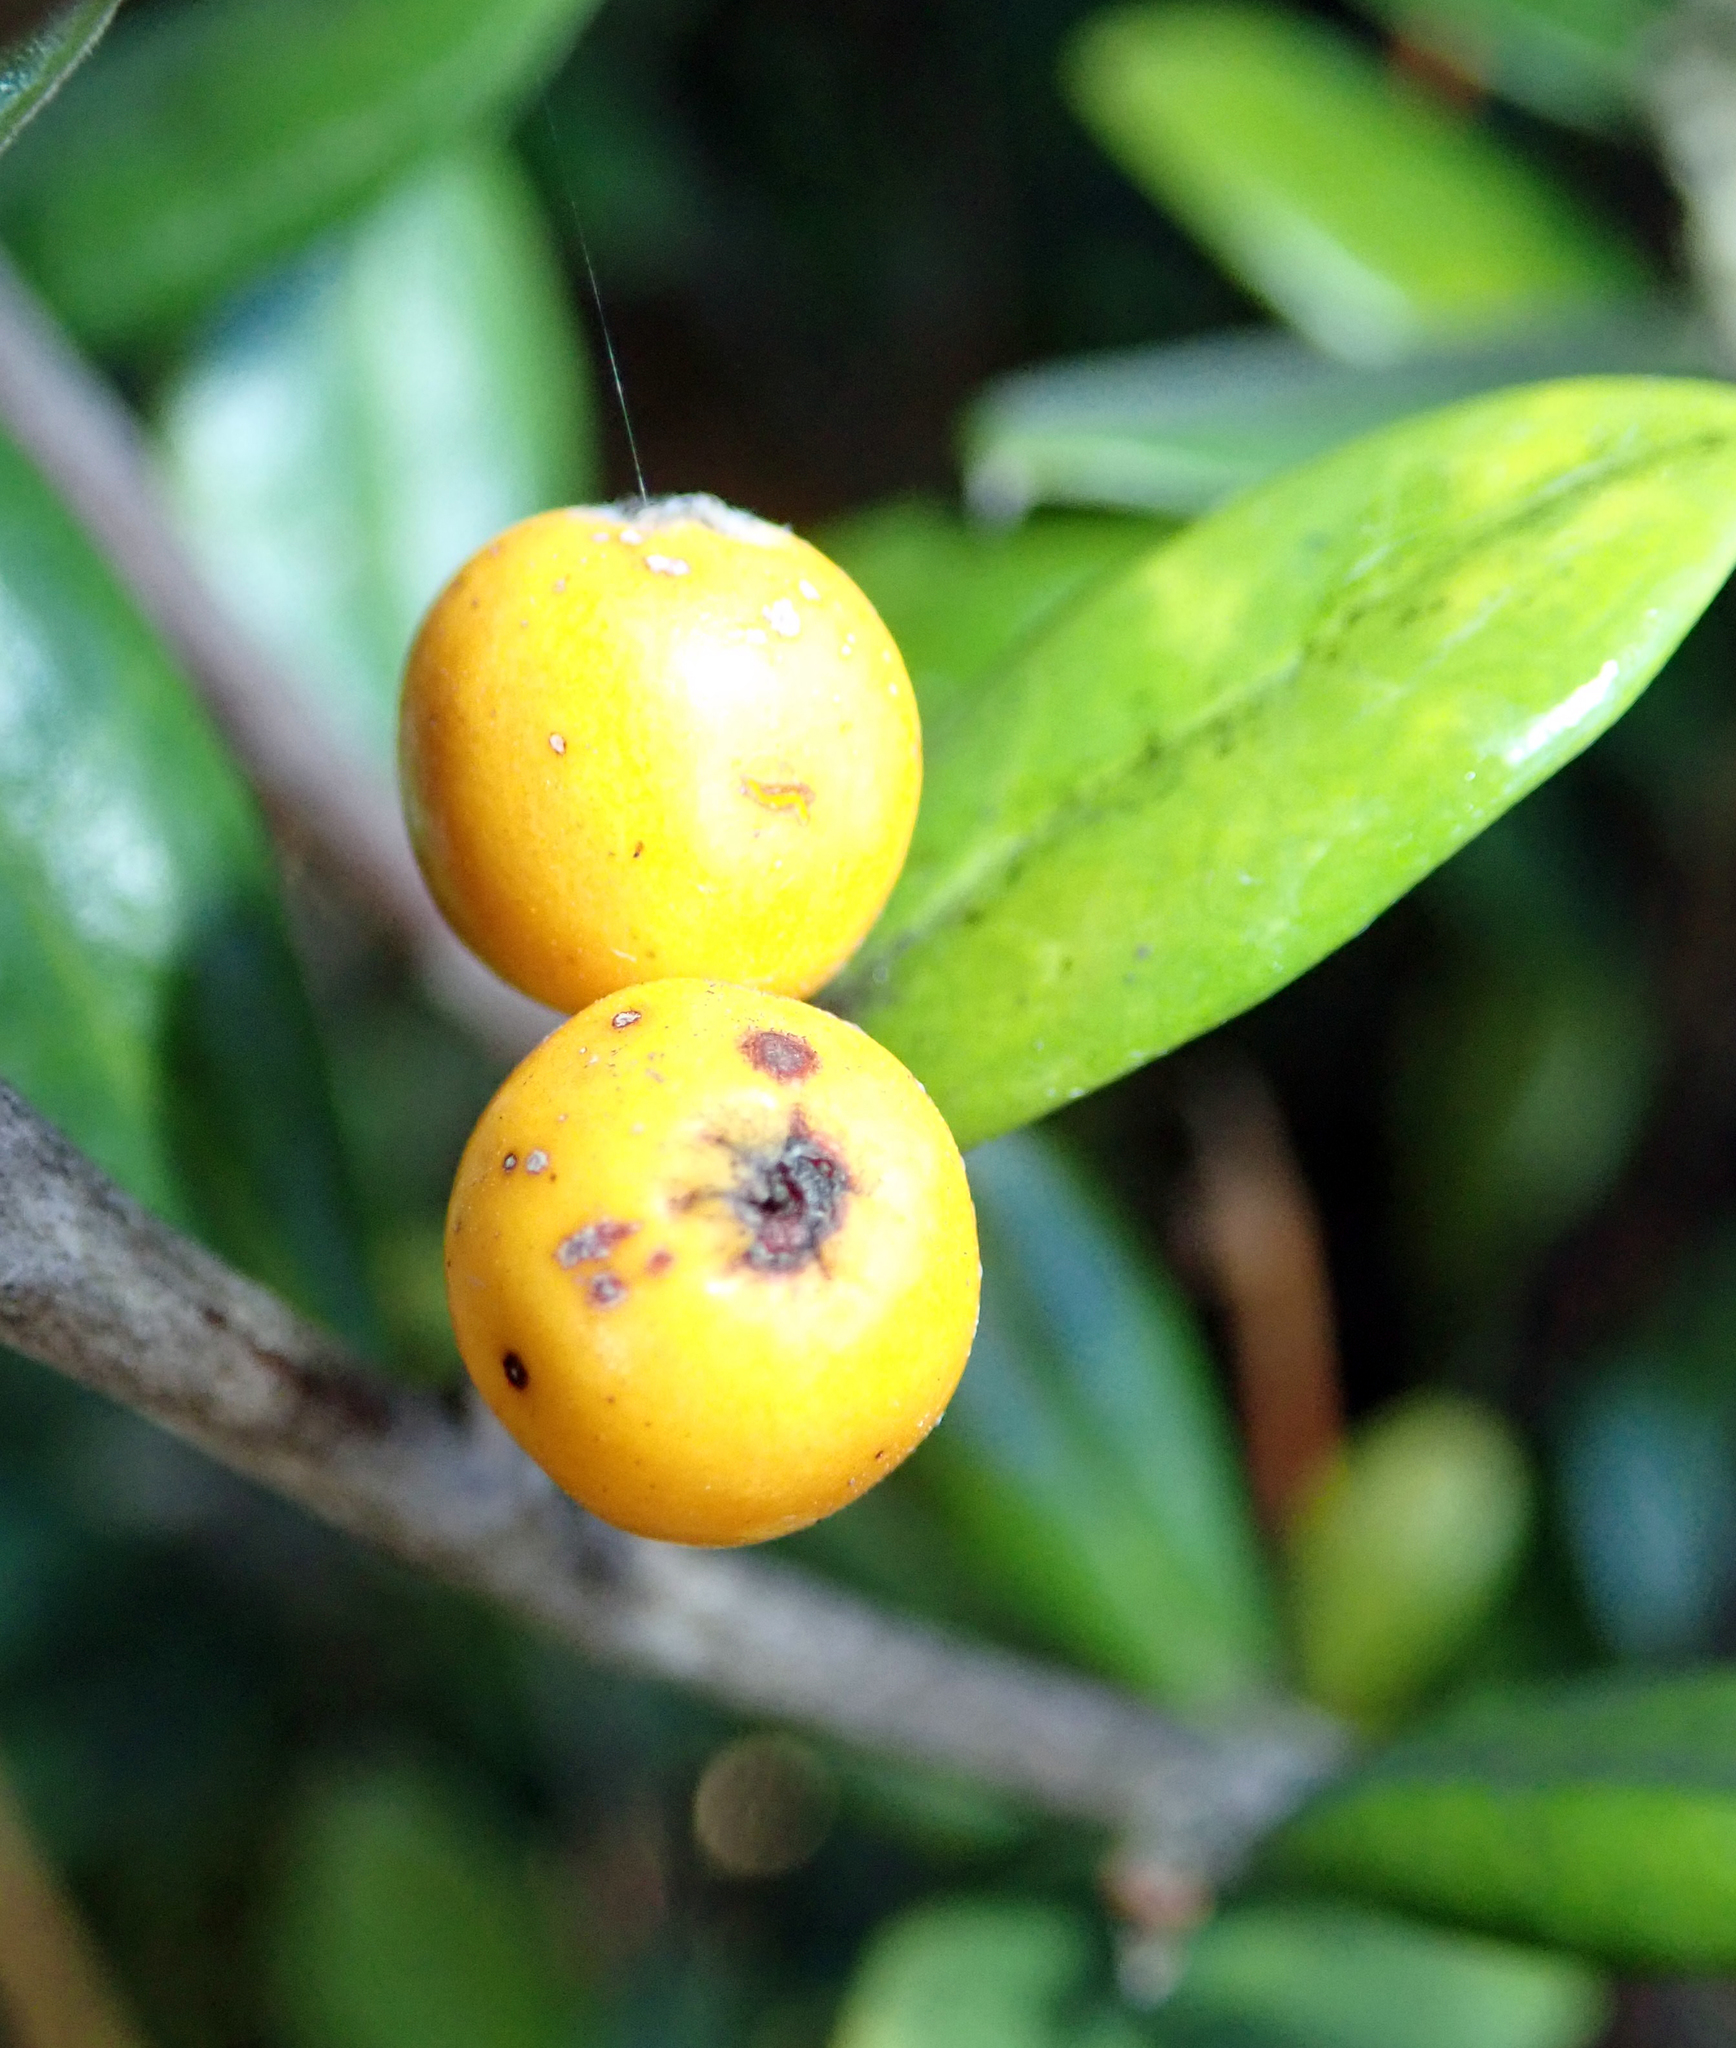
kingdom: Plantae
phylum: Tracheophyta
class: Magnoliopsida
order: Asterales
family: Argophyllaceae
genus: Corokia
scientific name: Corokia macrocarpa
